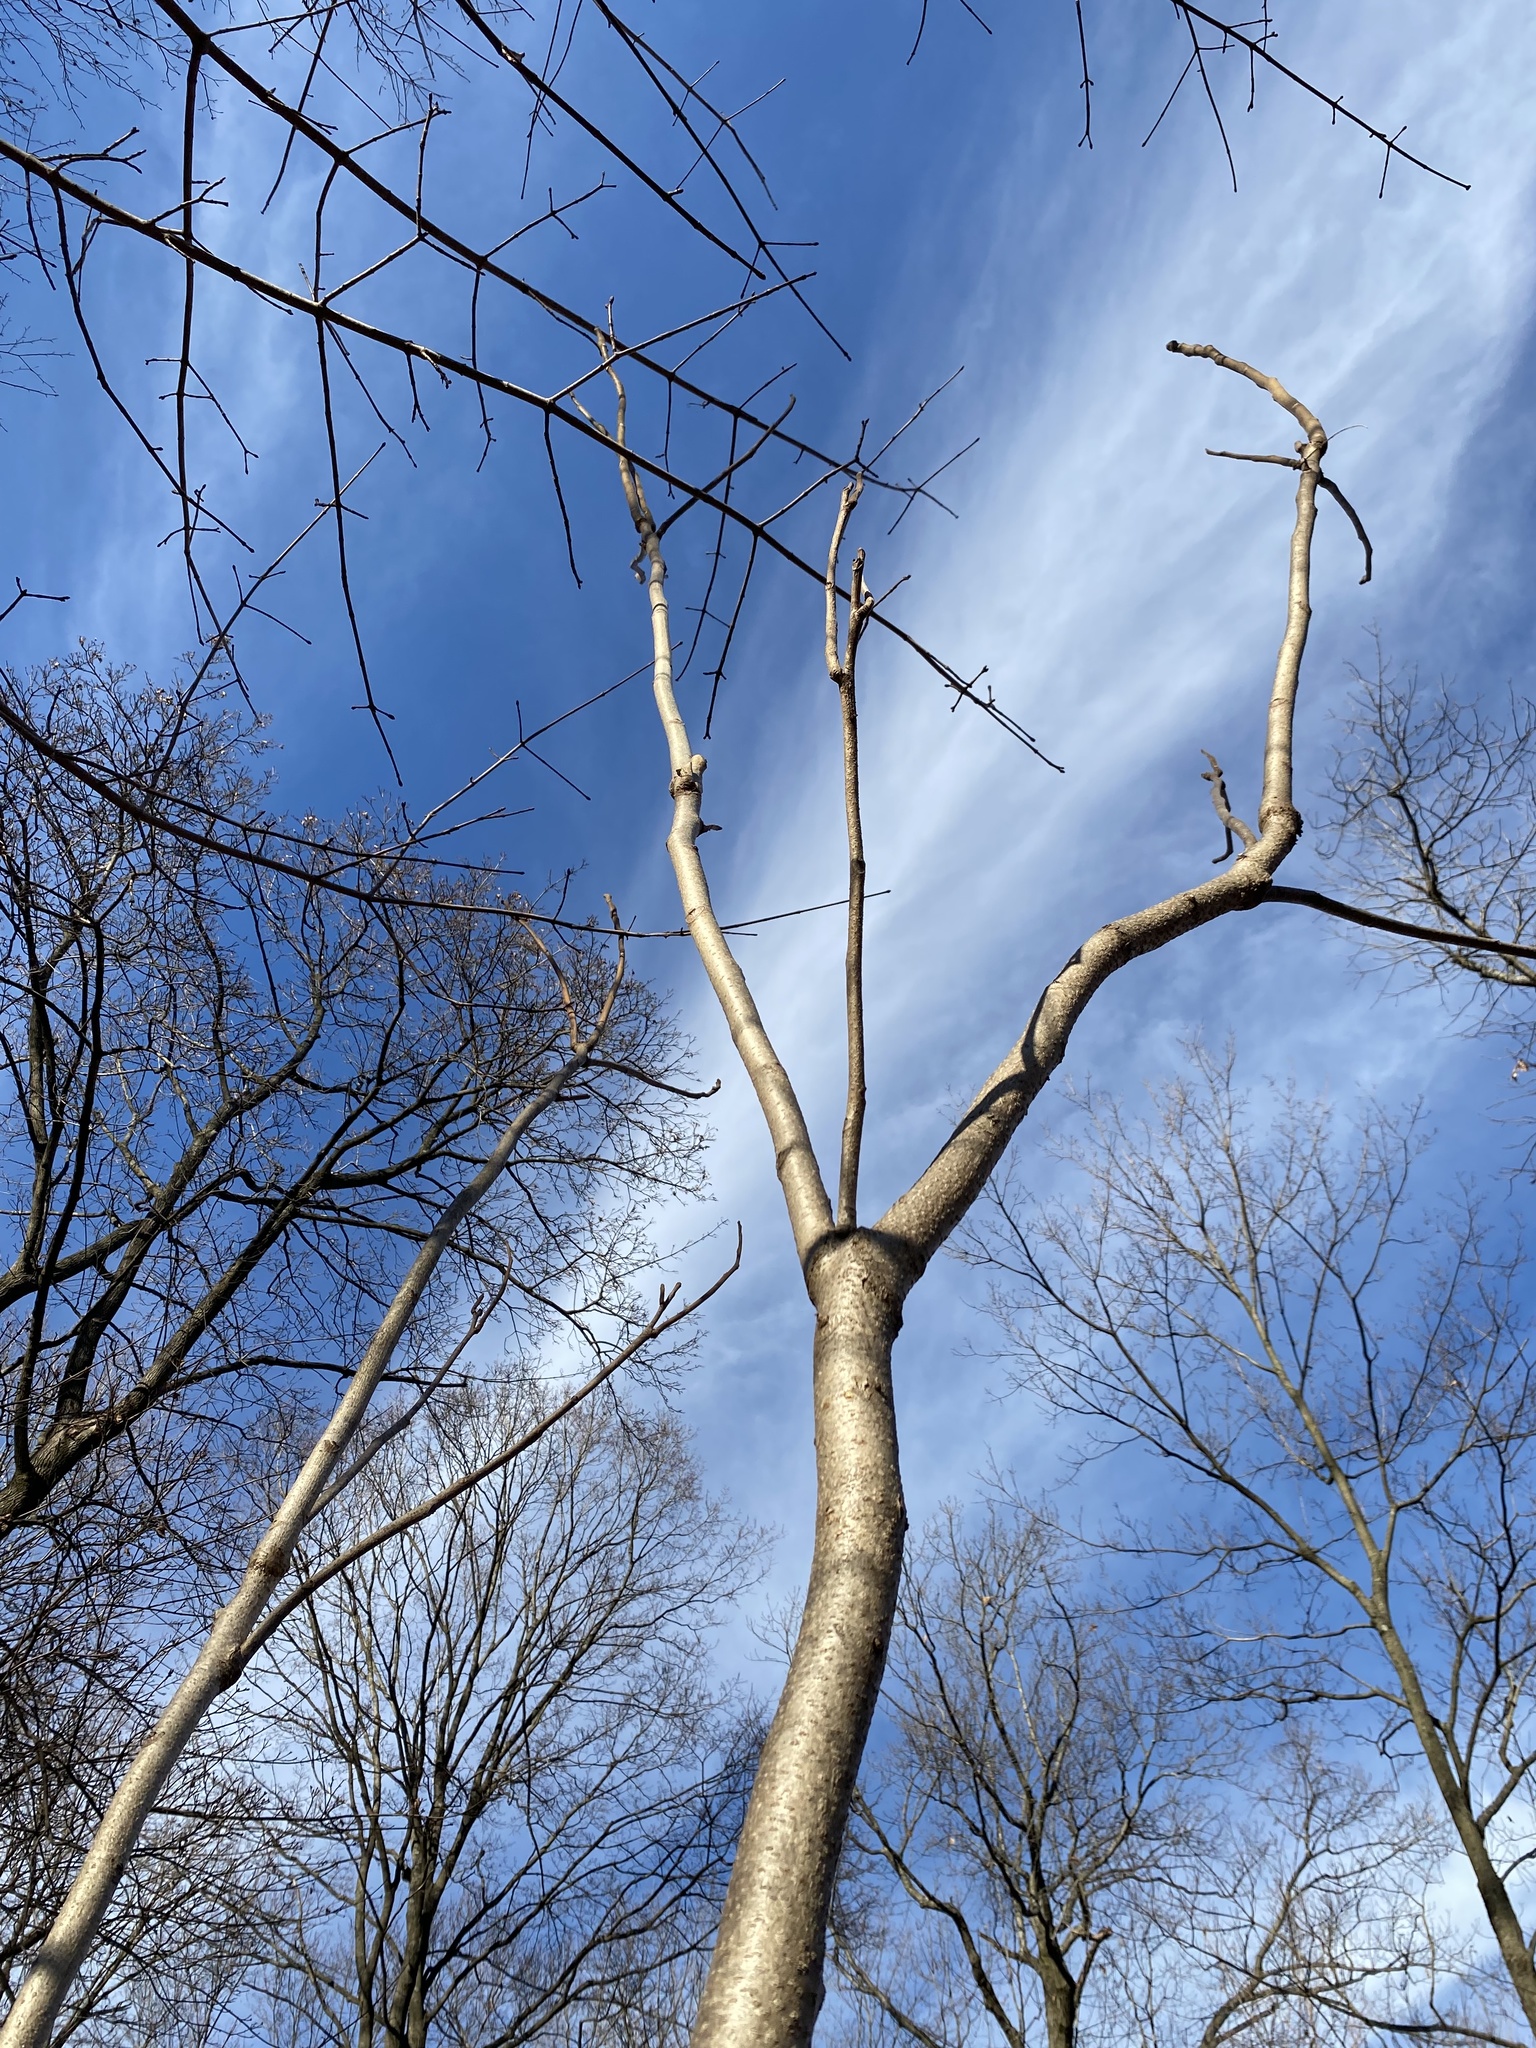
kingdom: Plantae
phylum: Tracheophyta
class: Magnoliopsida
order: Sapindales
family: Simaroubaceae
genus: Ailanthus
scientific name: Ailanthus altissima
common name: Tree-of-heaven
